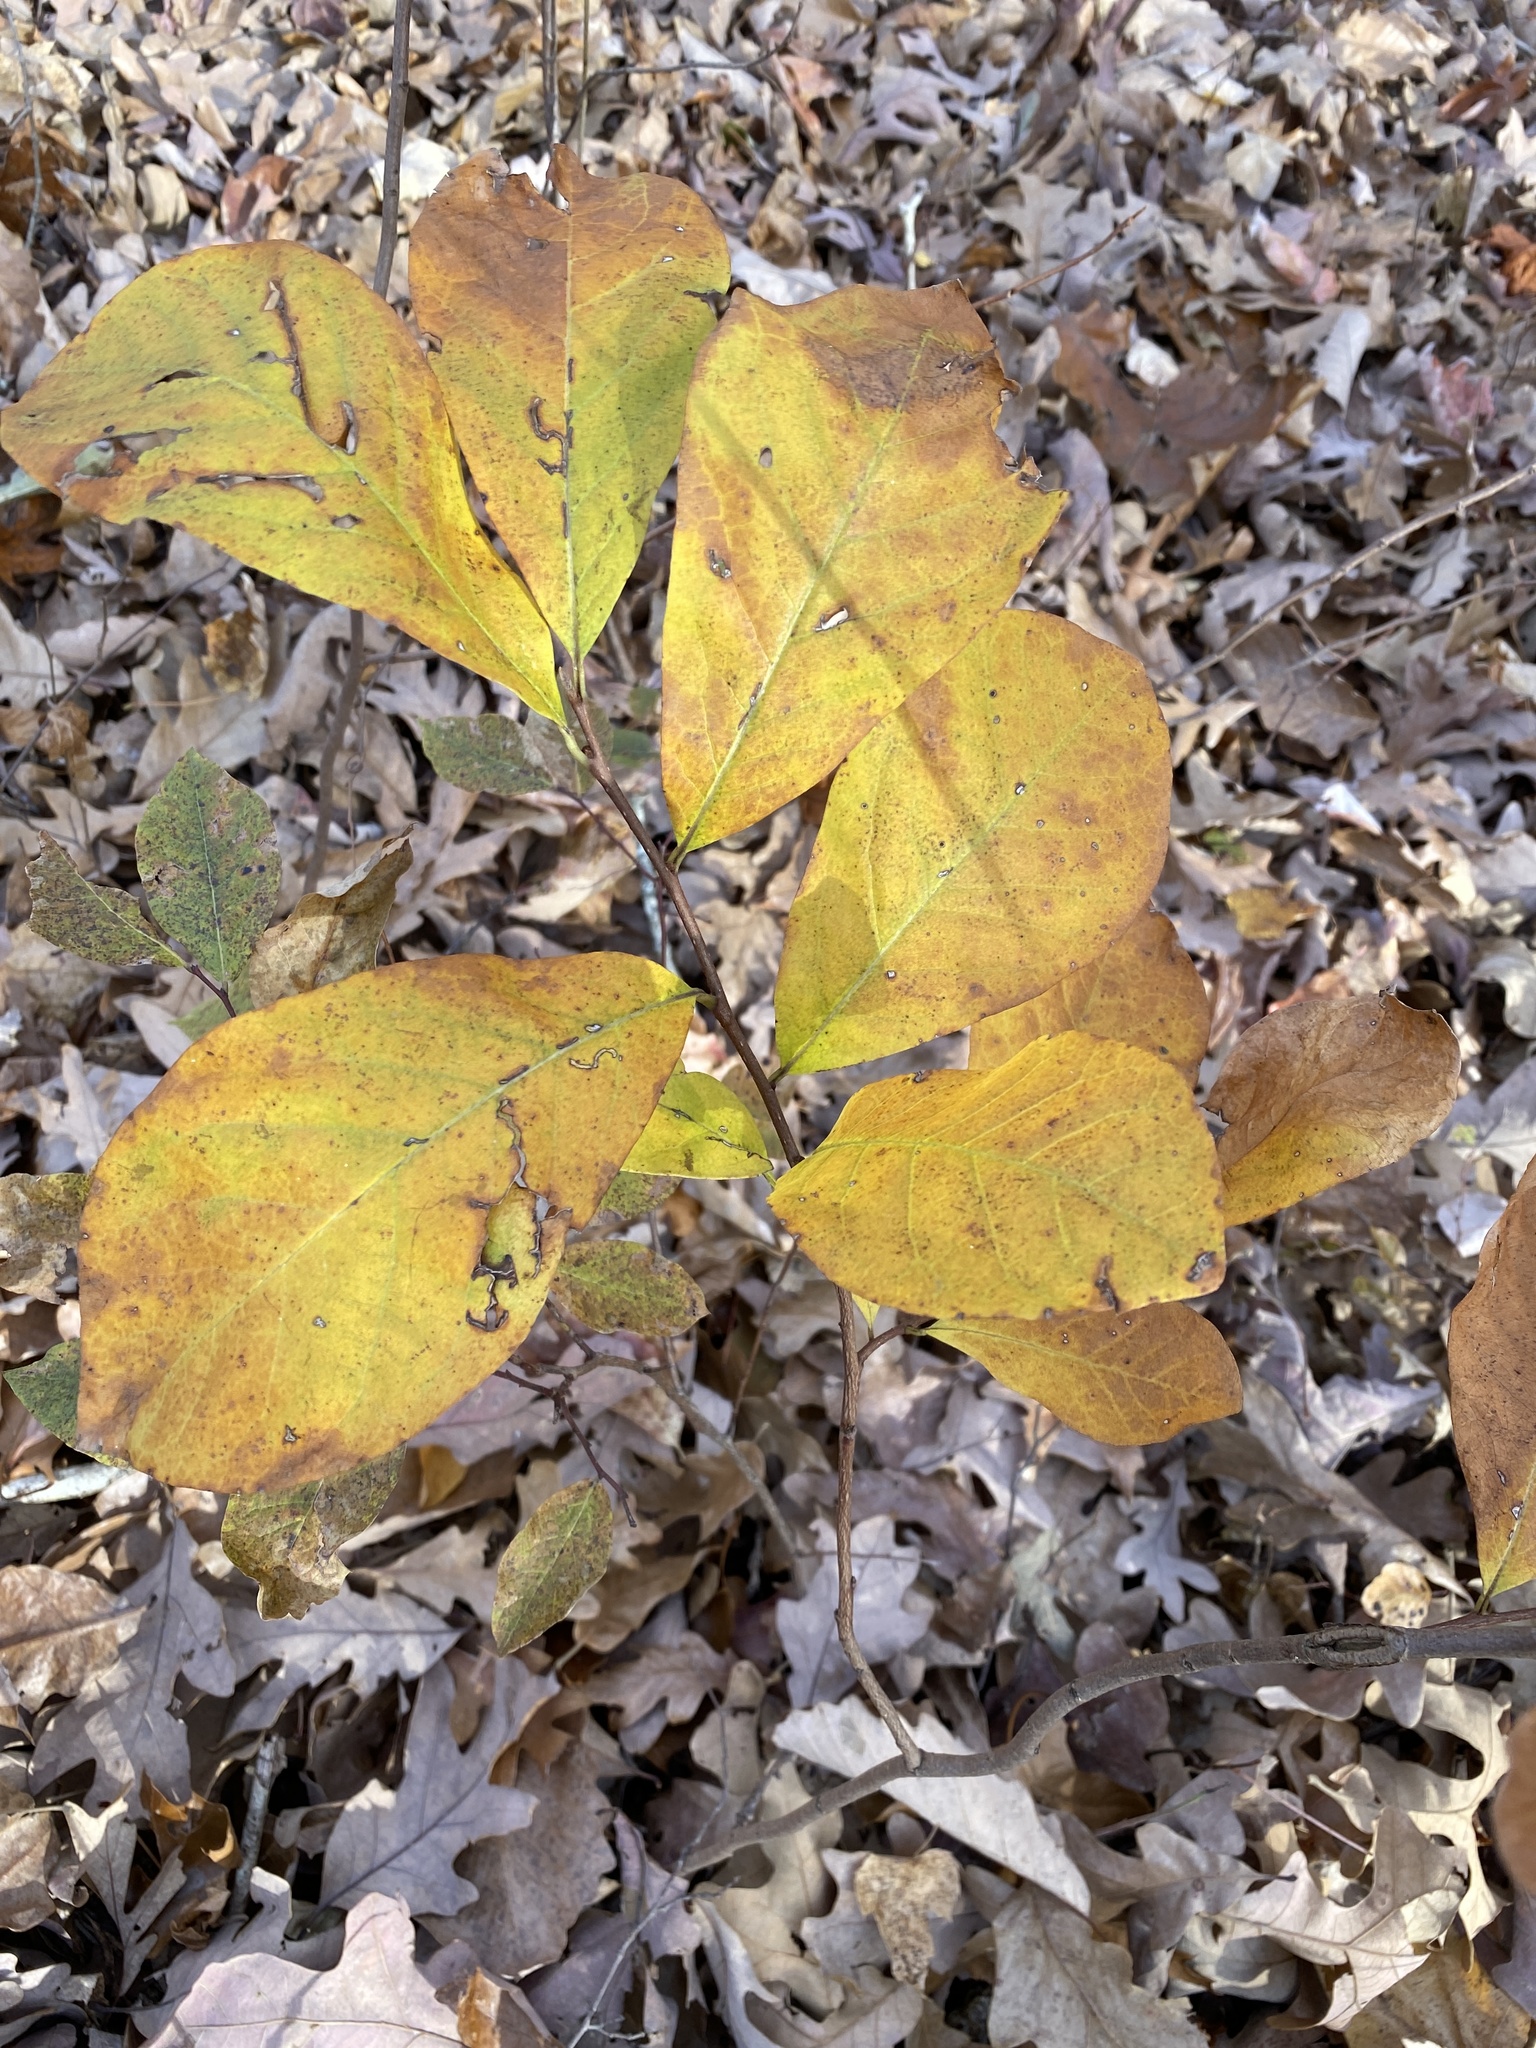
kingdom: Plantae
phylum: Tracheophyta
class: Magnoliopsida
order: Magnoliales
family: Annonaceae
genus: Asimina
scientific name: Asimina parviflora
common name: Dwarf pawpaw
